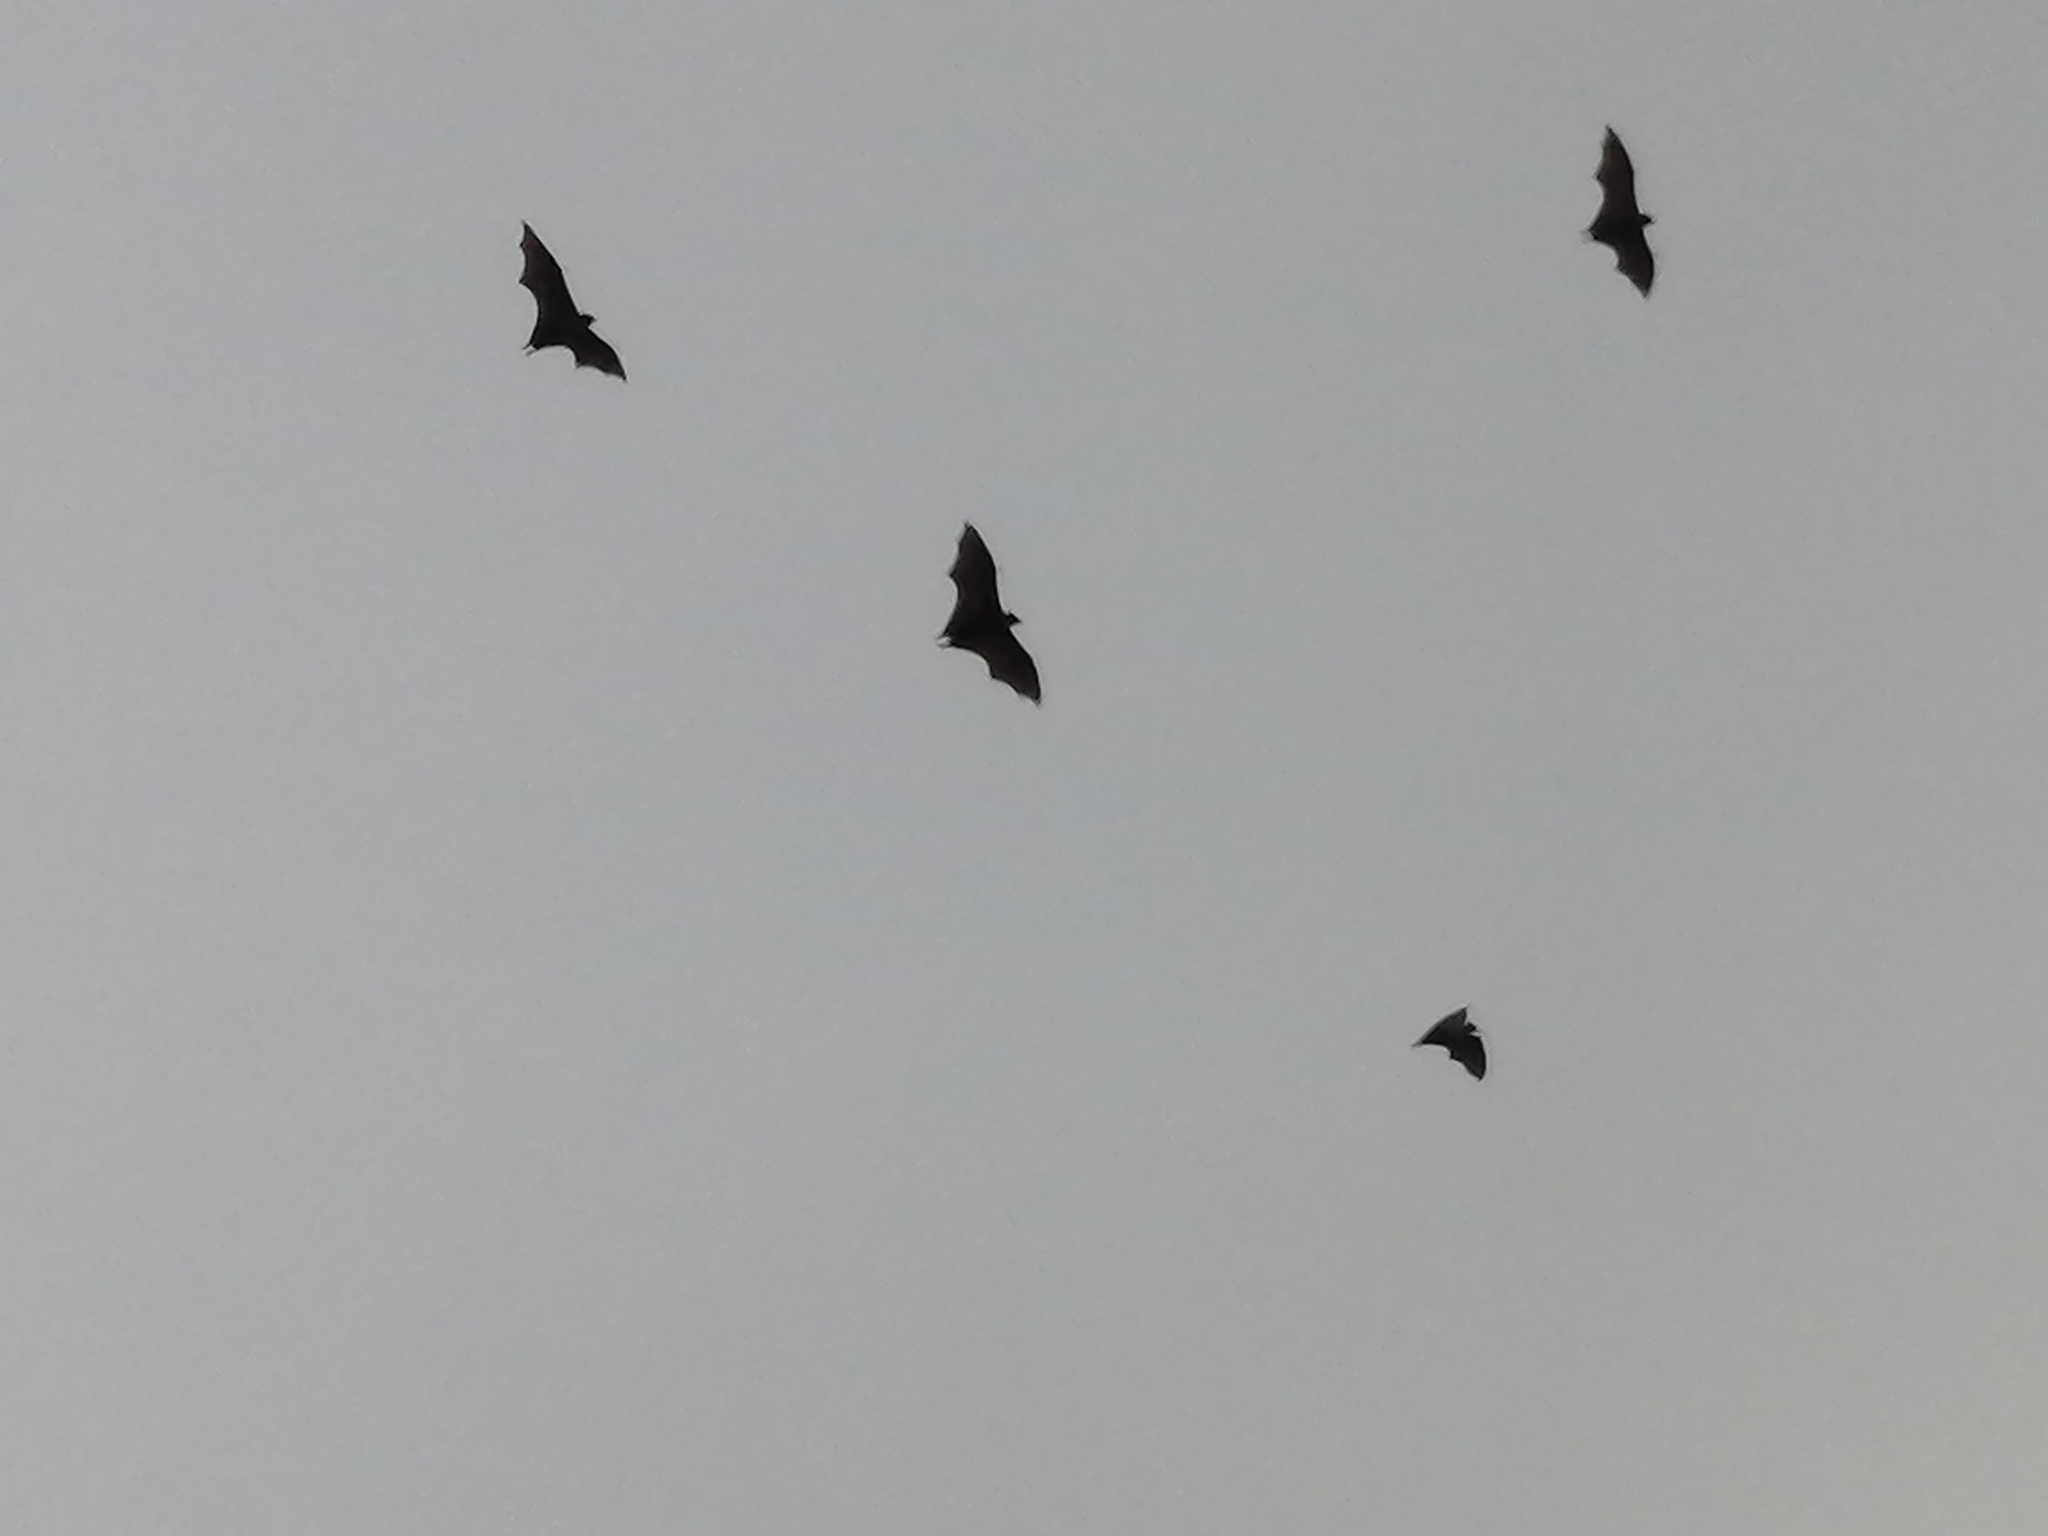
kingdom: Animalia
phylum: Chordata
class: Mammalia
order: Chiroptera
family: Pteropodidae
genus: Pteropus
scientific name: Pteropus vampyrus
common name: Large flying fox
